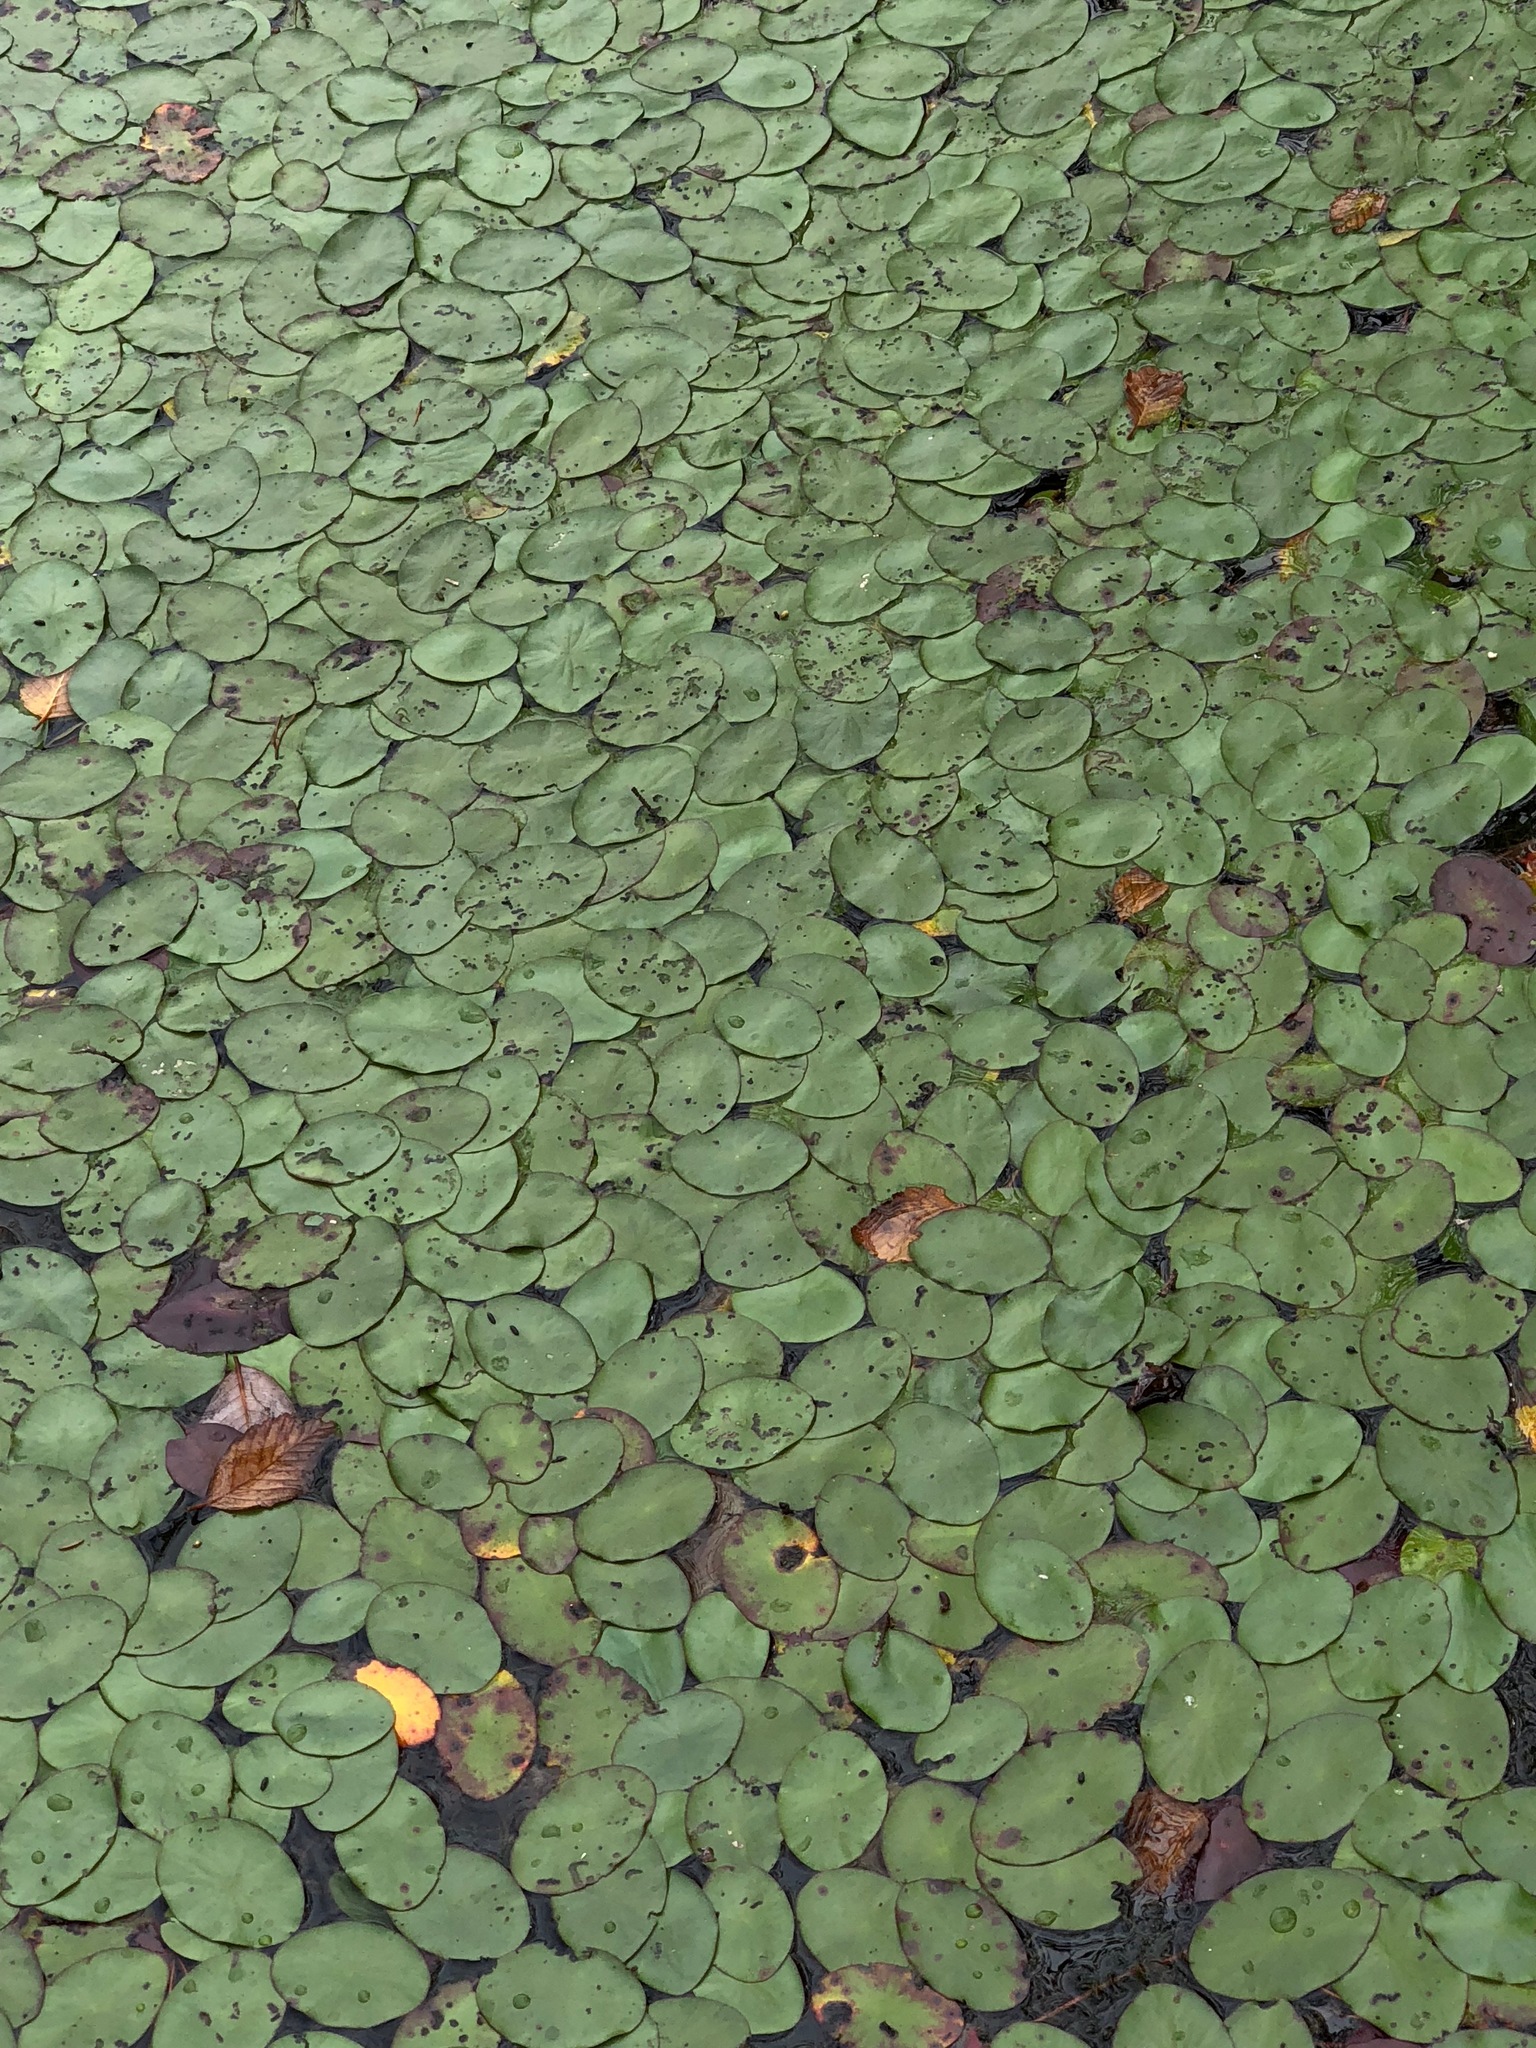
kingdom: Plantae
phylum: Tracheophyta
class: Magnoliopsida
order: Nymphaeales
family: Cabombaceae
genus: Brasenia
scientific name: Brasenia schreberi
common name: Water-shield
